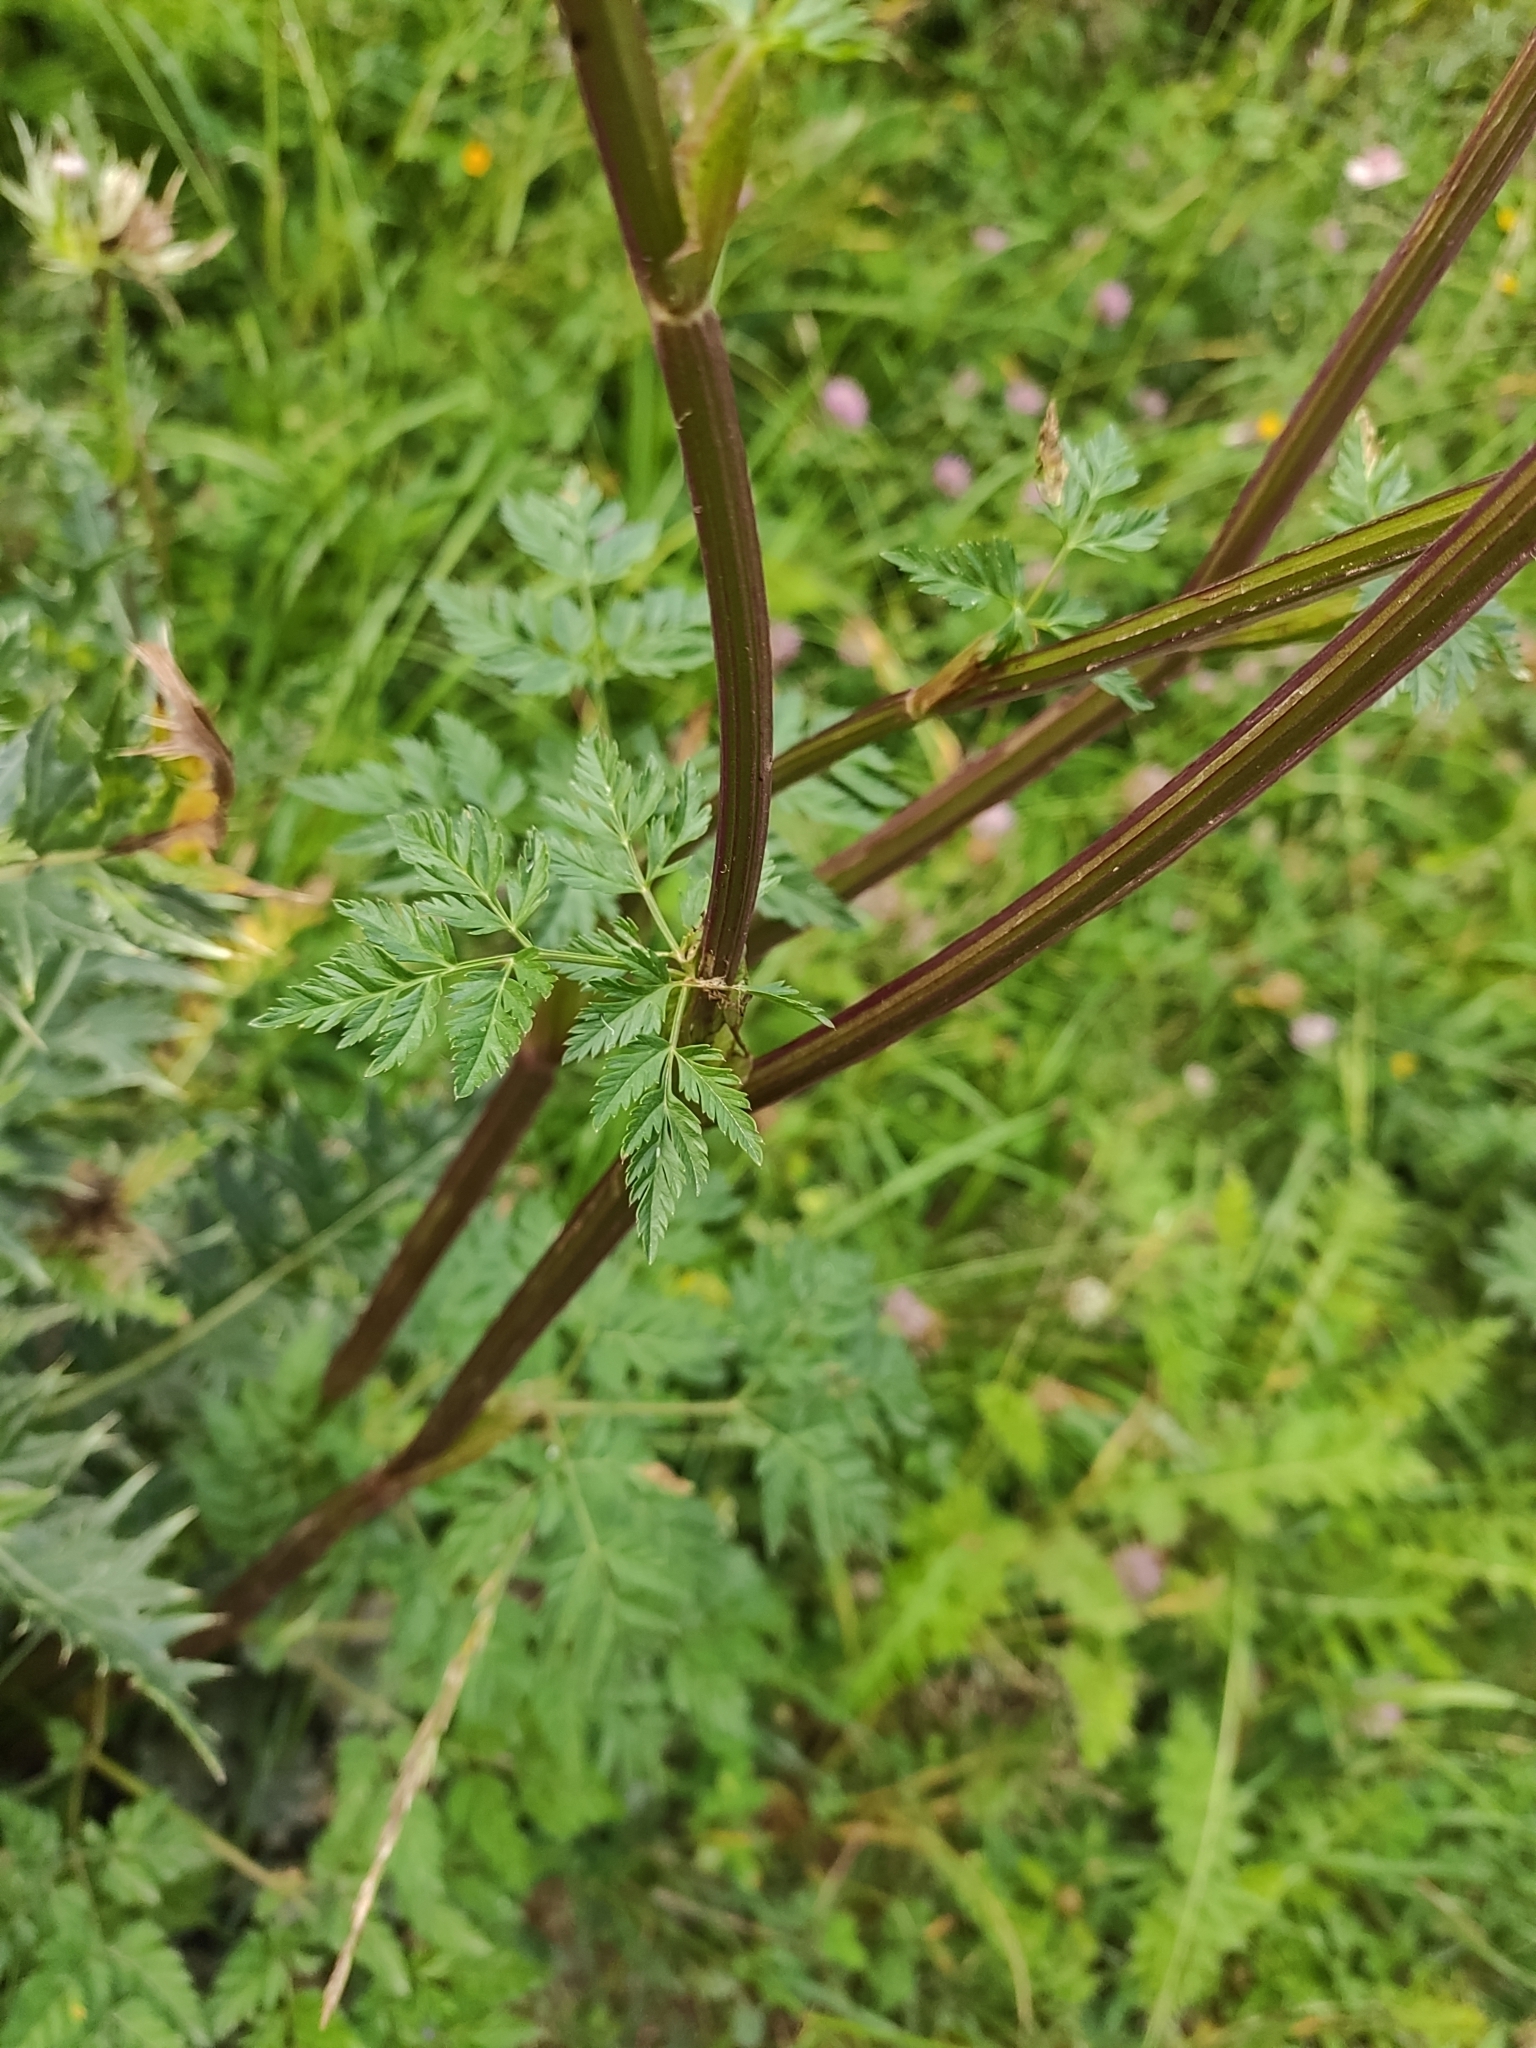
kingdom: Plantae
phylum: Tracheophyta
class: Magnoliopsida
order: Apiales
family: Apiaceae
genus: Selinum
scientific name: Selinum alatum
